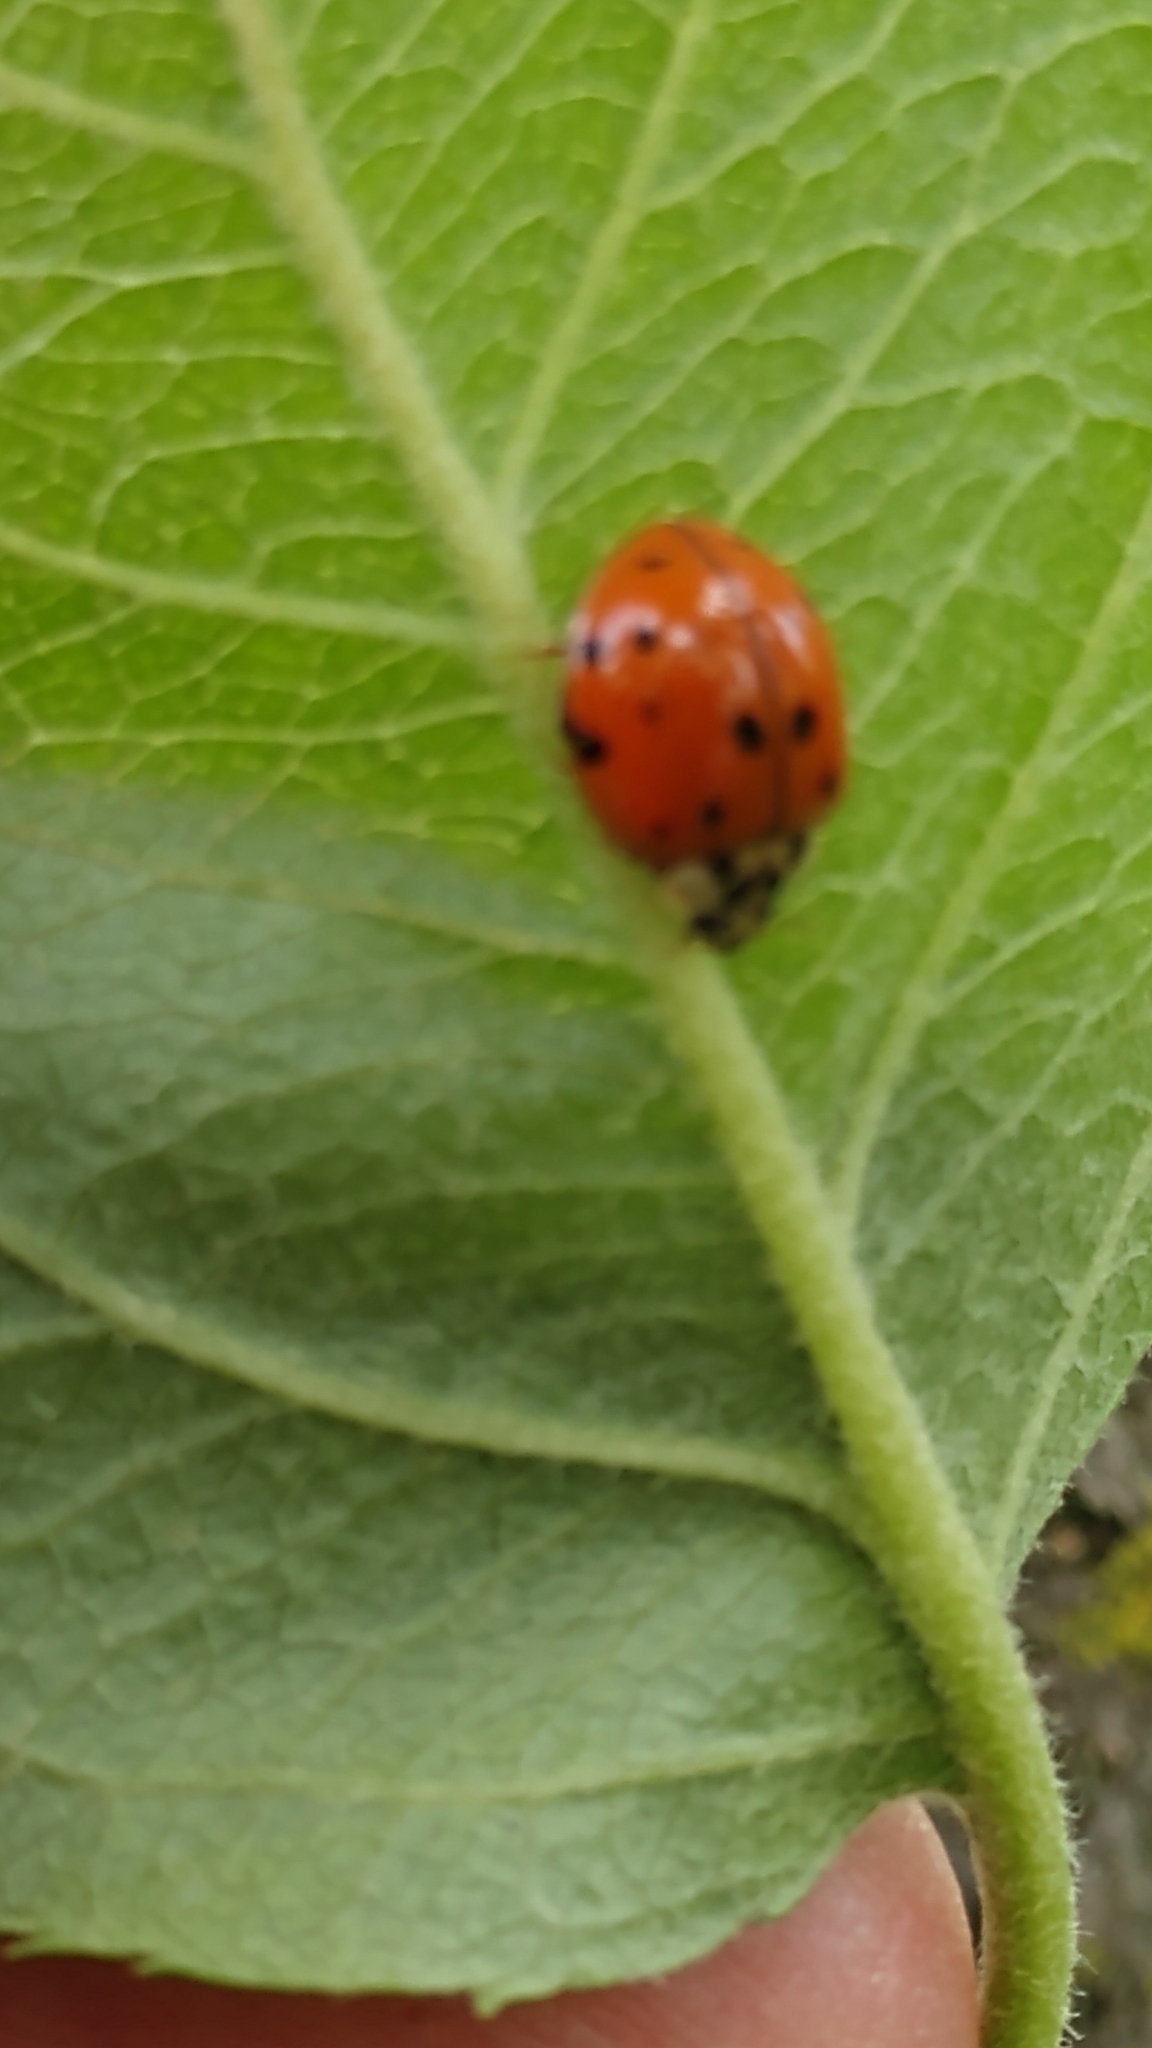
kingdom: Animalia
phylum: Arthropoda
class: Insecta
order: Coleoptera
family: Coccinellidae
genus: Harmonia
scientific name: Harmonia axyridis
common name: Harlequin ladybird
